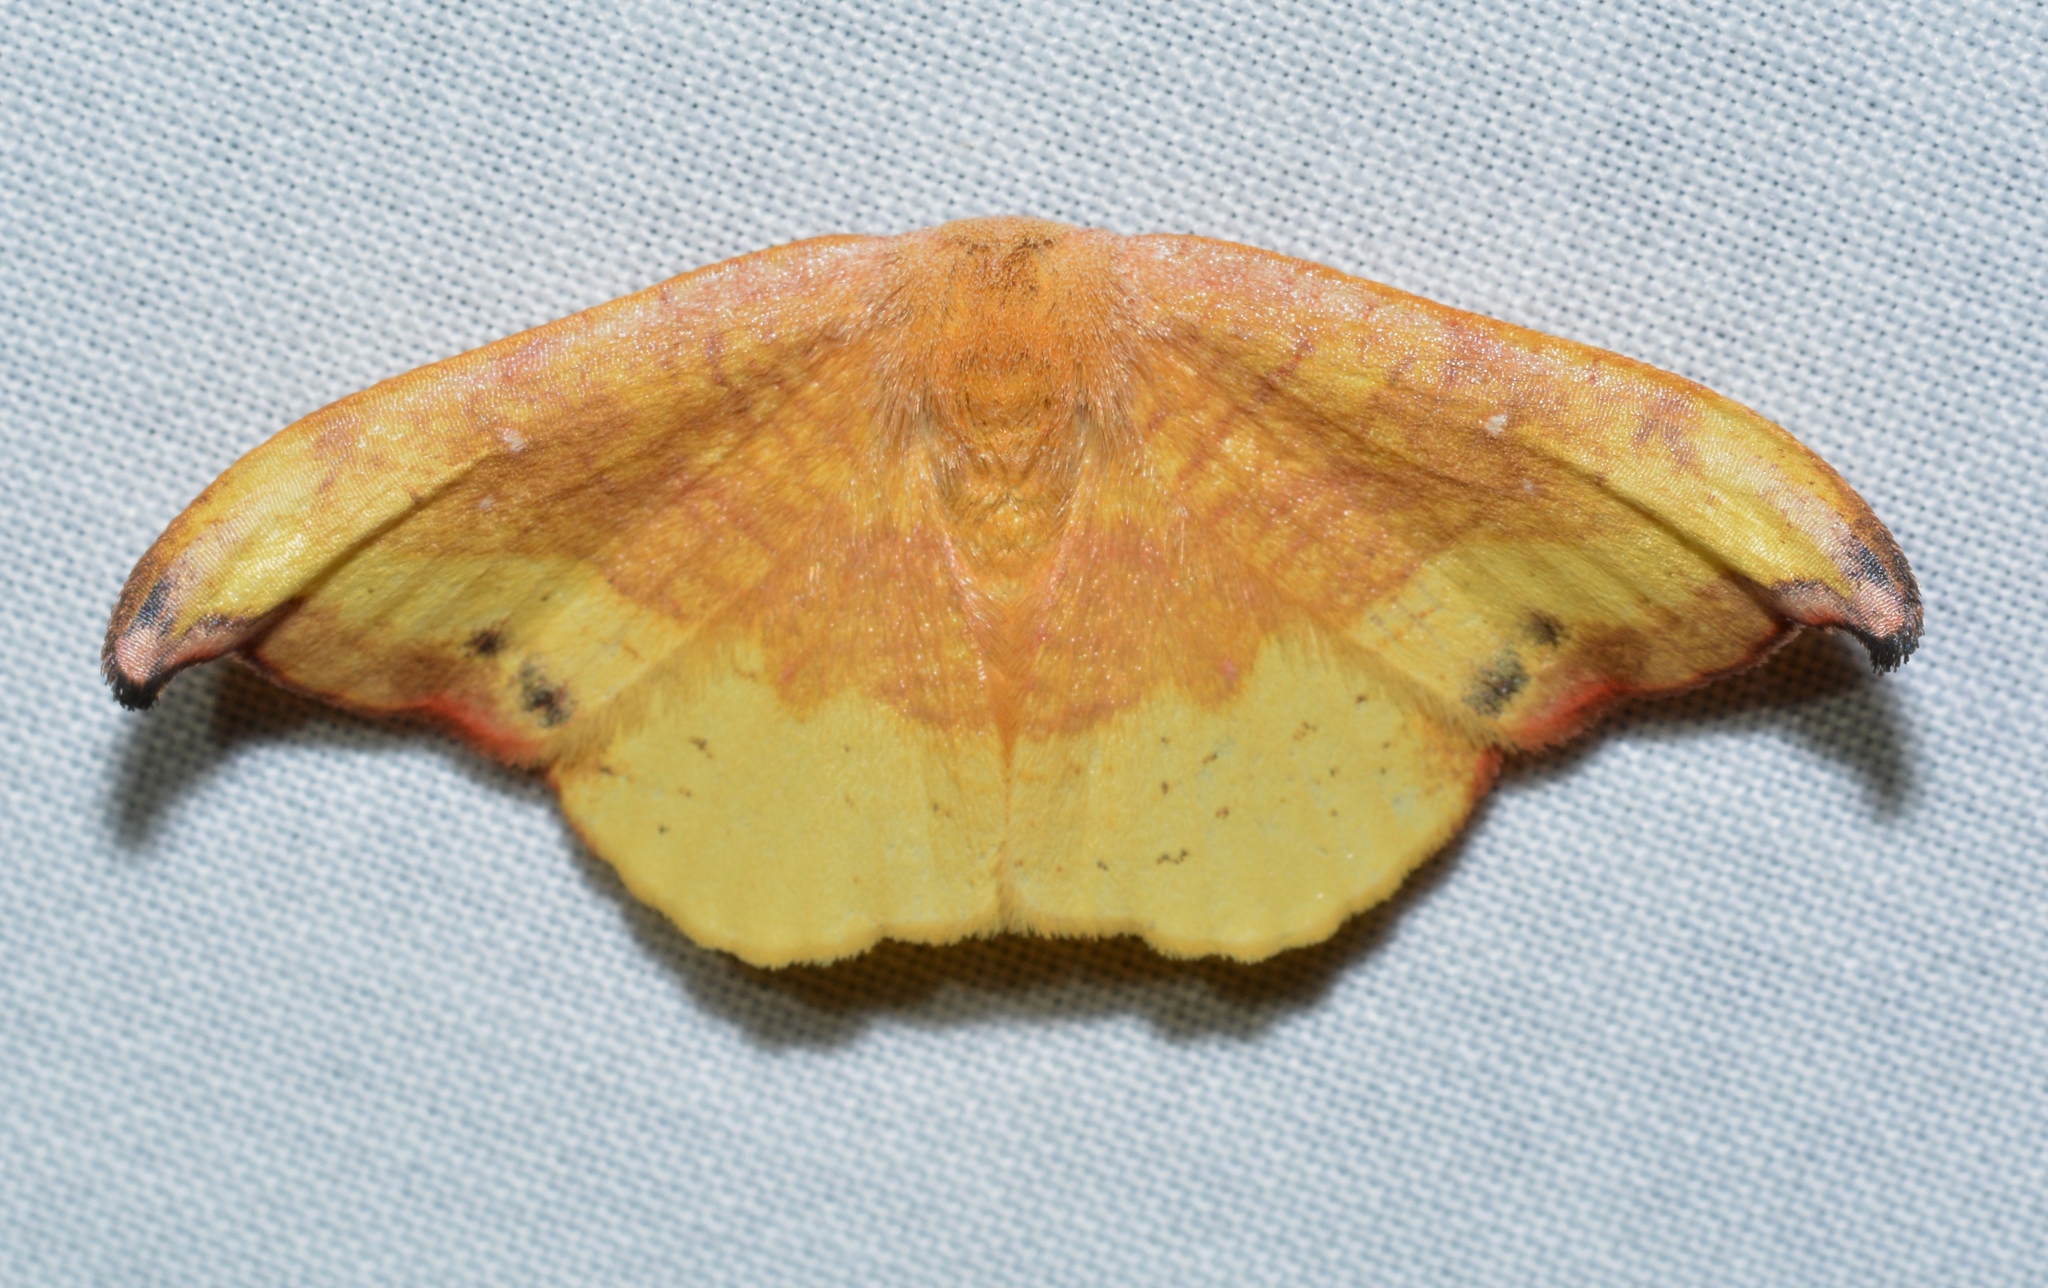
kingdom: Animalia
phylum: Arthropoda
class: Insecta
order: Lepidoptera
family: Drepanidae
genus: Oreta
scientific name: Oreta rosea
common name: Rose hooktip
